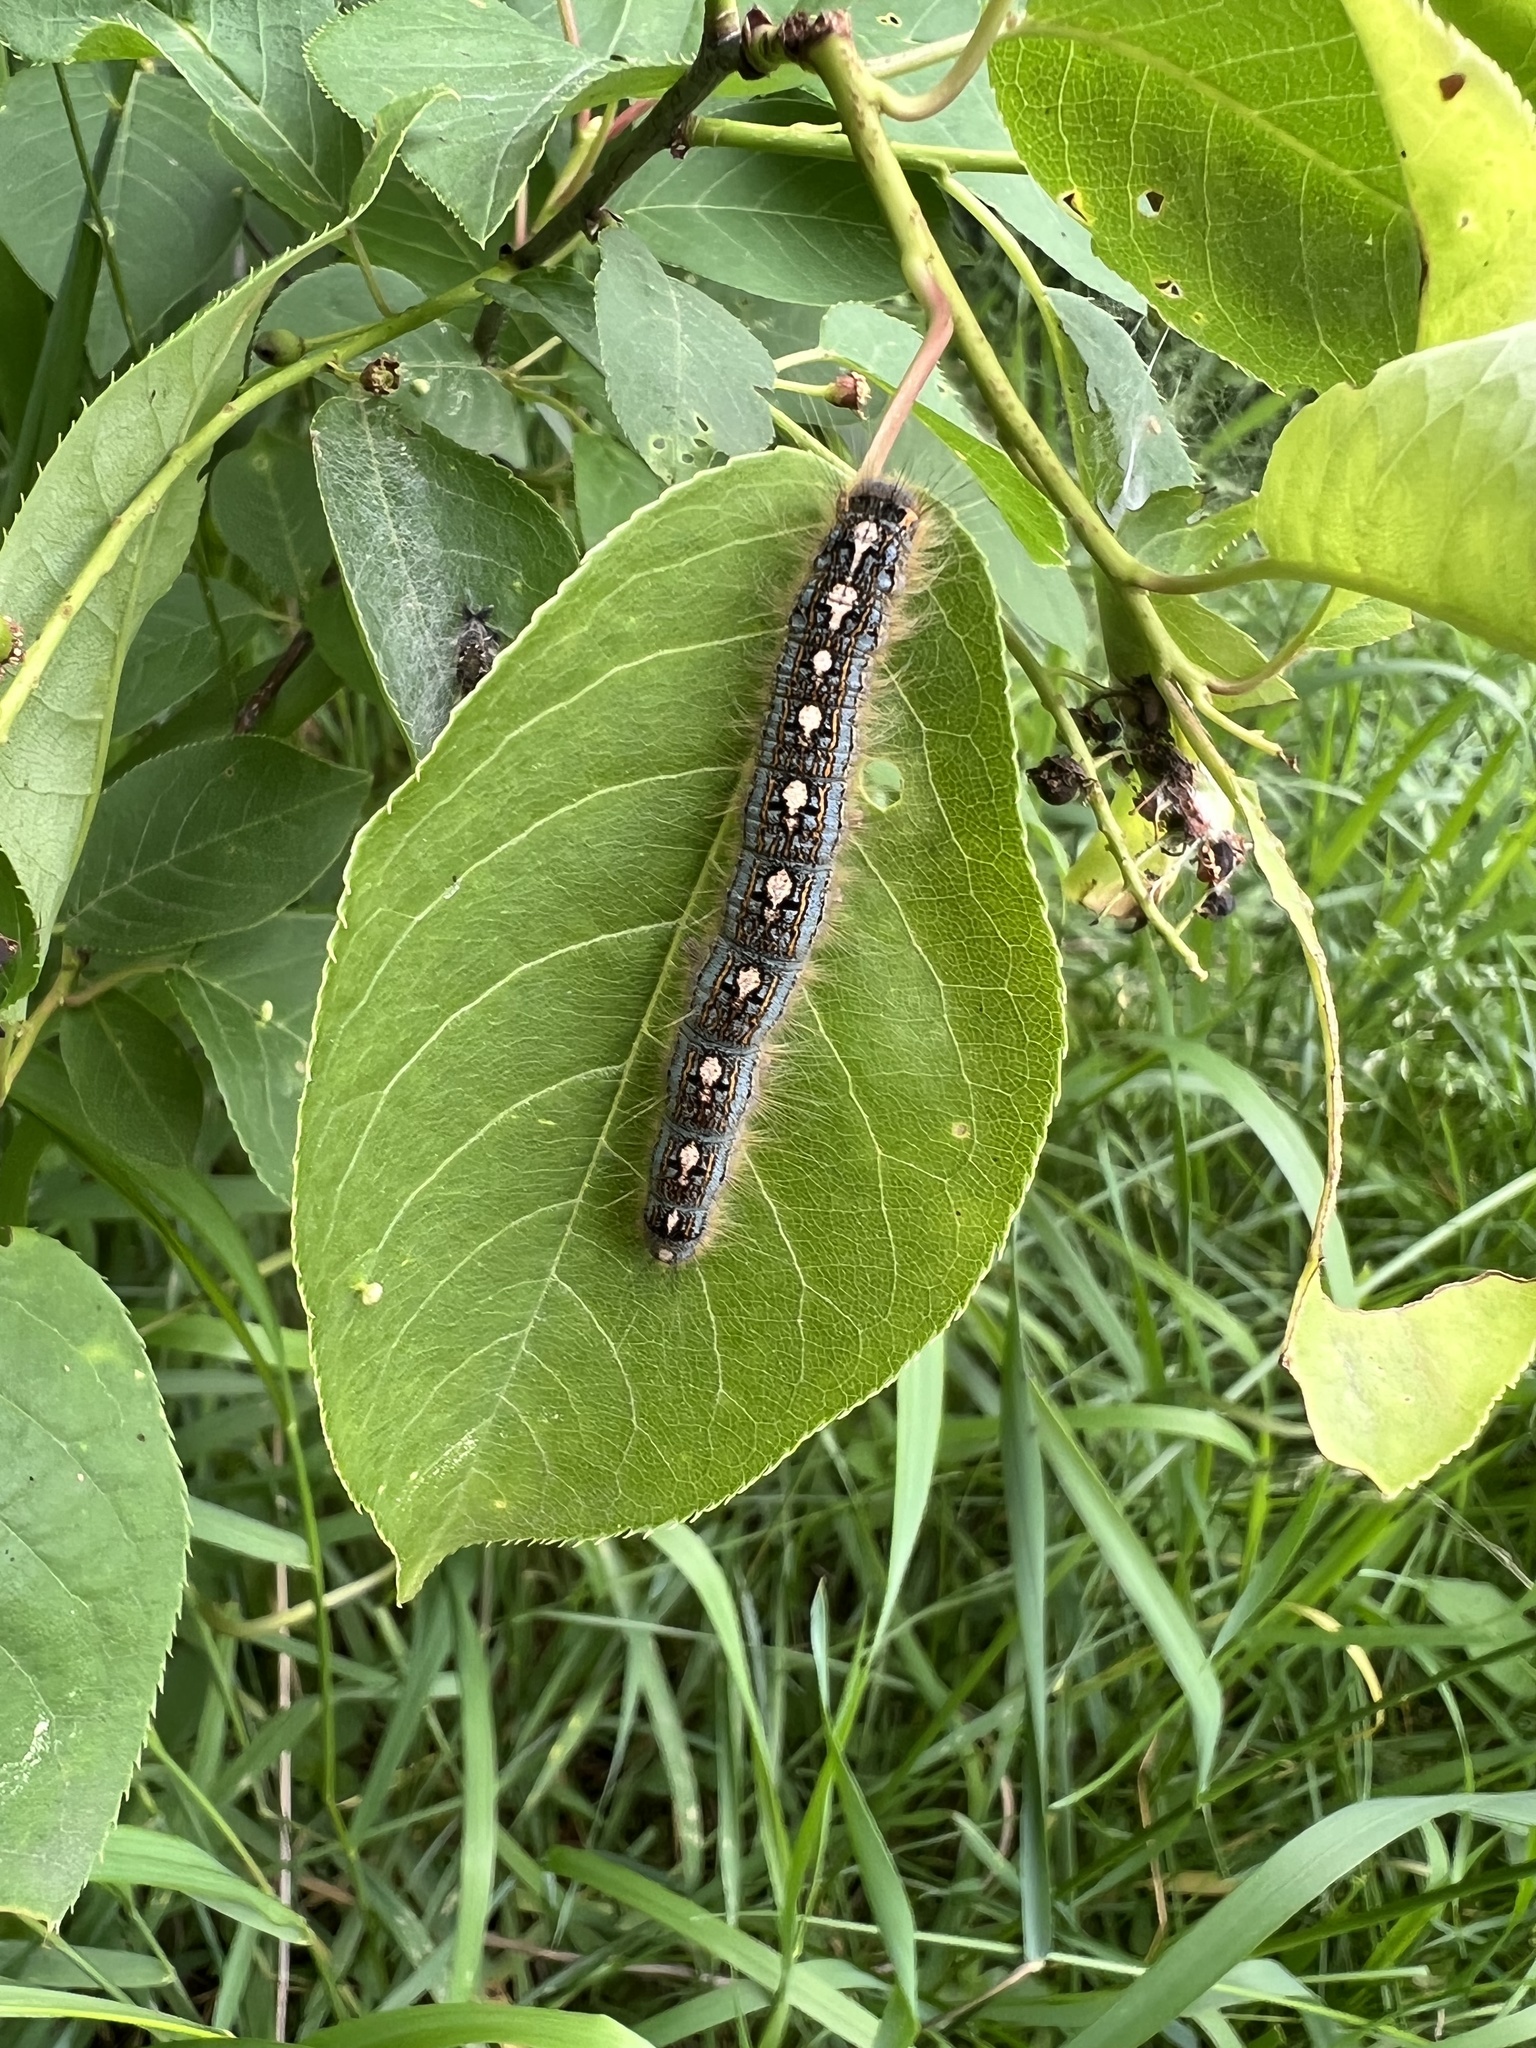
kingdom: Animalia
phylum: Arthropoda
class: Insecta
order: Lepidoptera
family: Lasiocampidae
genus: Malacosoma
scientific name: Malacosoma disstria
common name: Forest tent caterpillar
